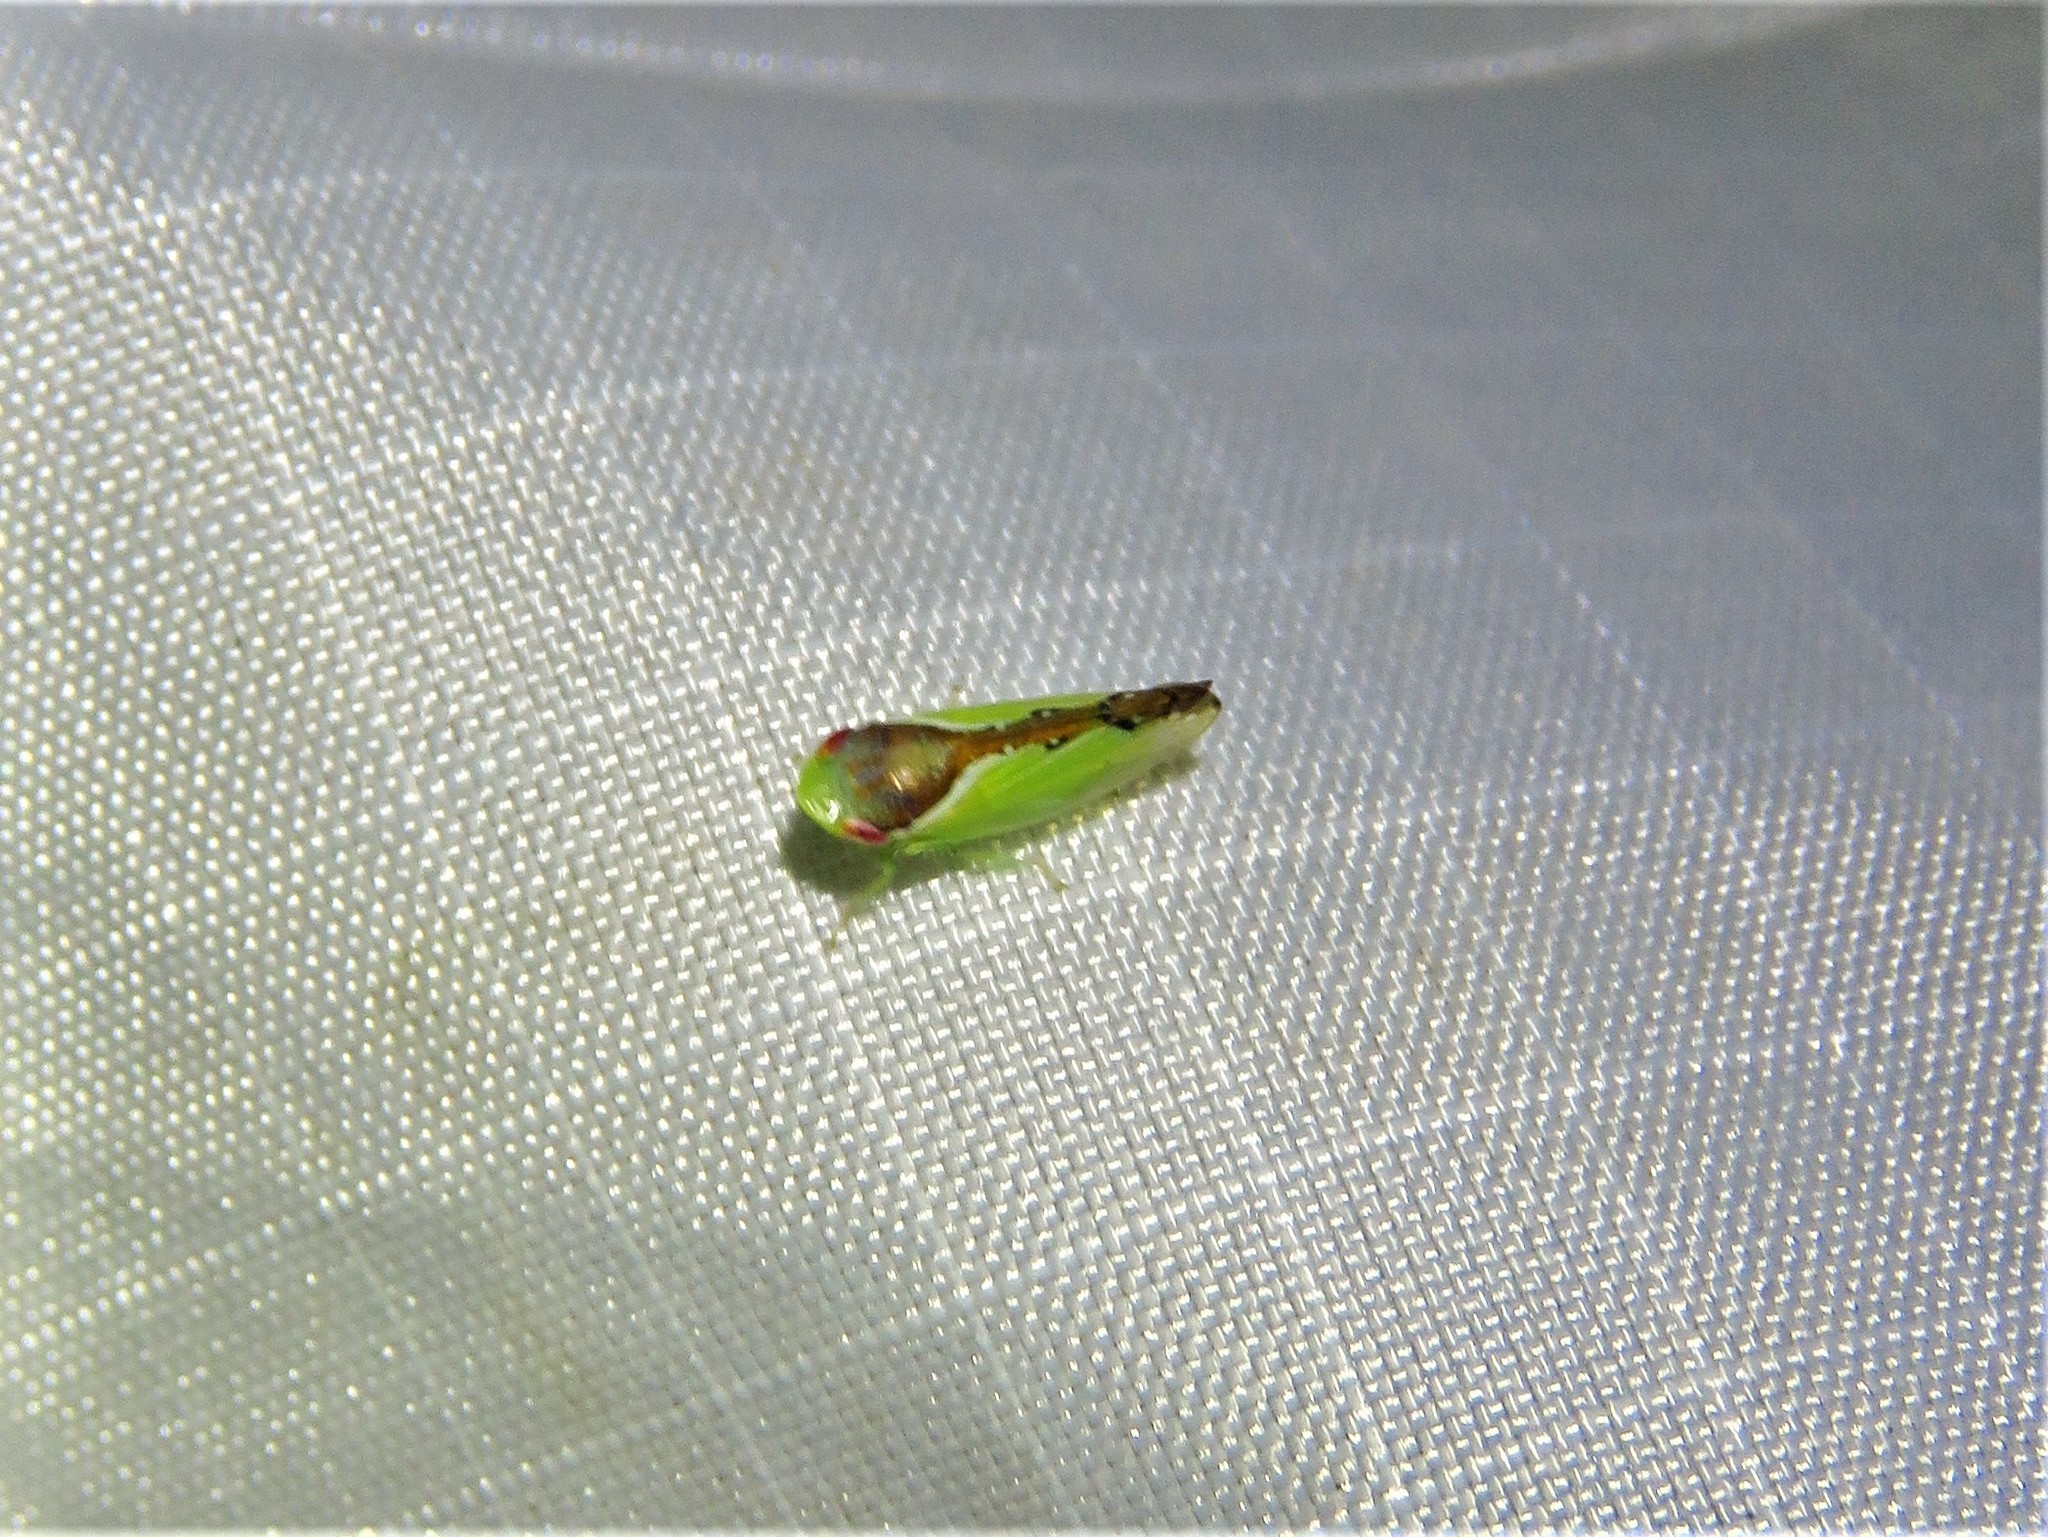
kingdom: Animalia
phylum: Arthropoda
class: Insecta
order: Hemiptera
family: Cicadellidae
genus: Omansobara ing
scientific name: Omansobara ing Omansobara palliolata
